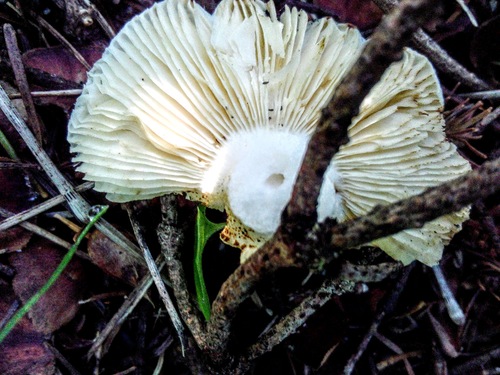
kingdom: Fungi
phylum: Basidiomycota
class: Agaricomycetes
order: Russulales
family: Russulaceae
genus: Russula
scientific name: Russula
